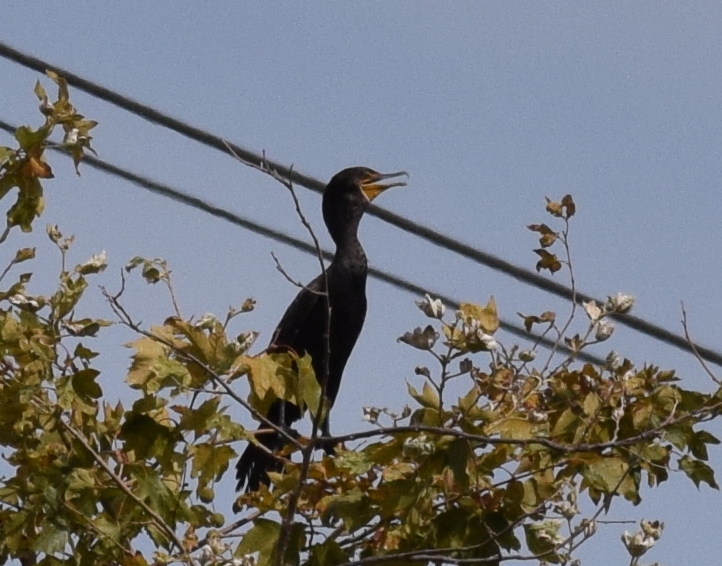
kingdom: Animalia
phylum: Chordata
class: Aves
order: Suliformes
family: Phalacrocoracidae
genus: Phalacrocorax
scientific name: Phalacrocorax auritus
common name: Double-crested cormorant
